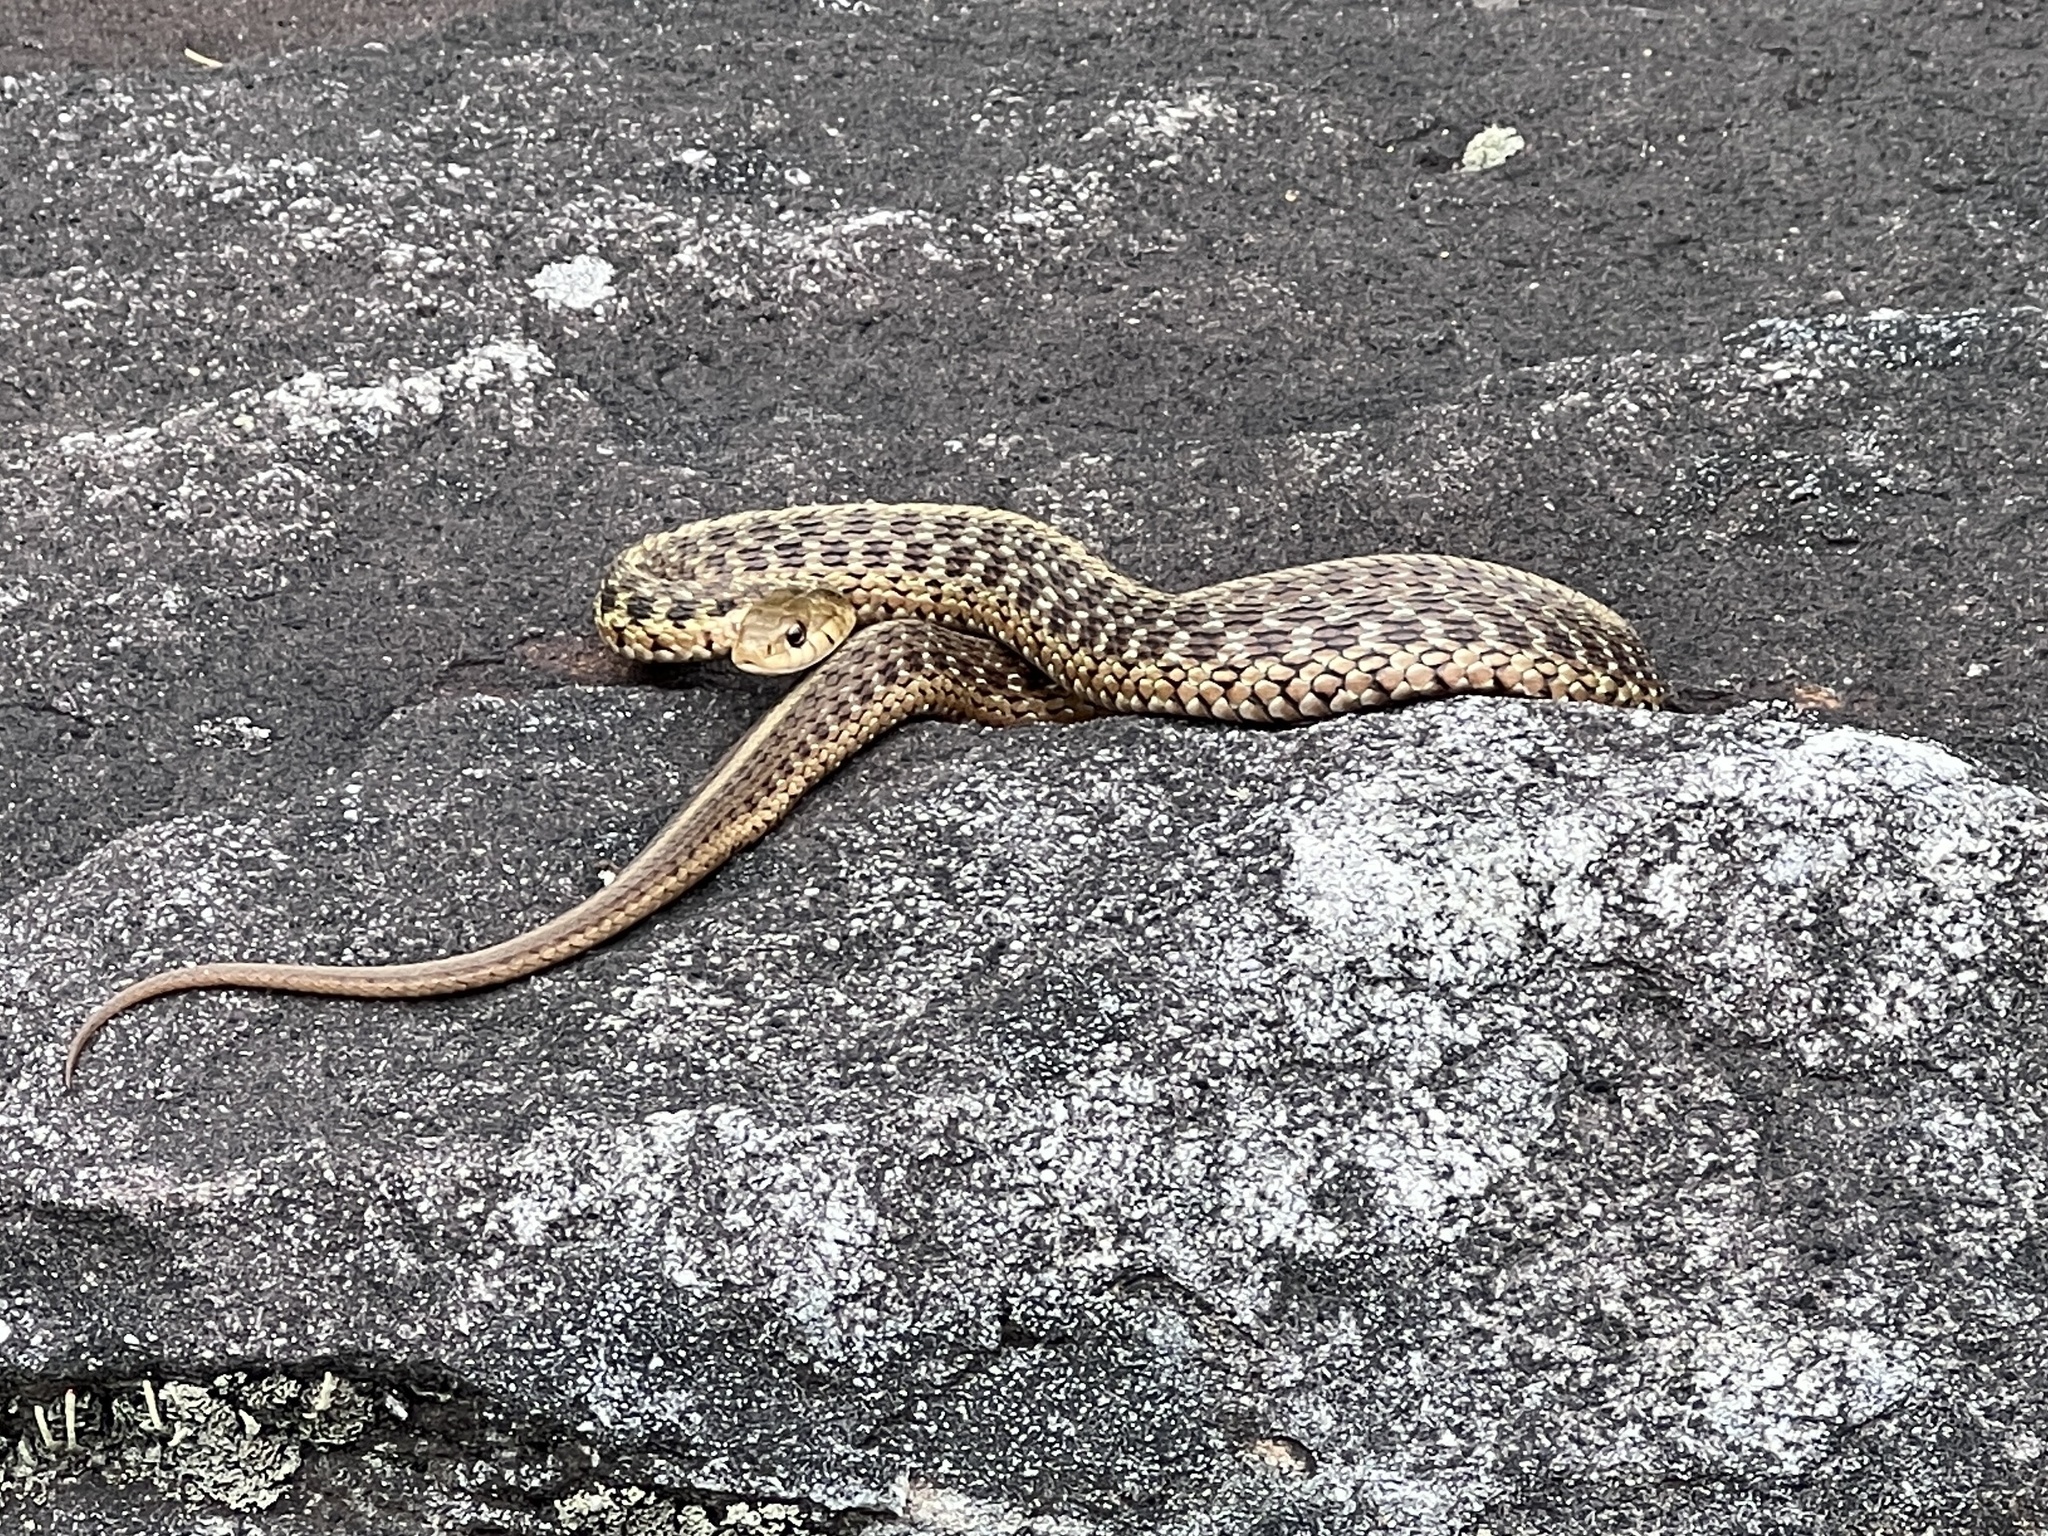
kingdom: Animalia
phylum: Chordata
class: Squamata
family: Colubridae
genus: Thamnophis
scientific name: Thamnophis sirtalis
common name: Common garter snake
